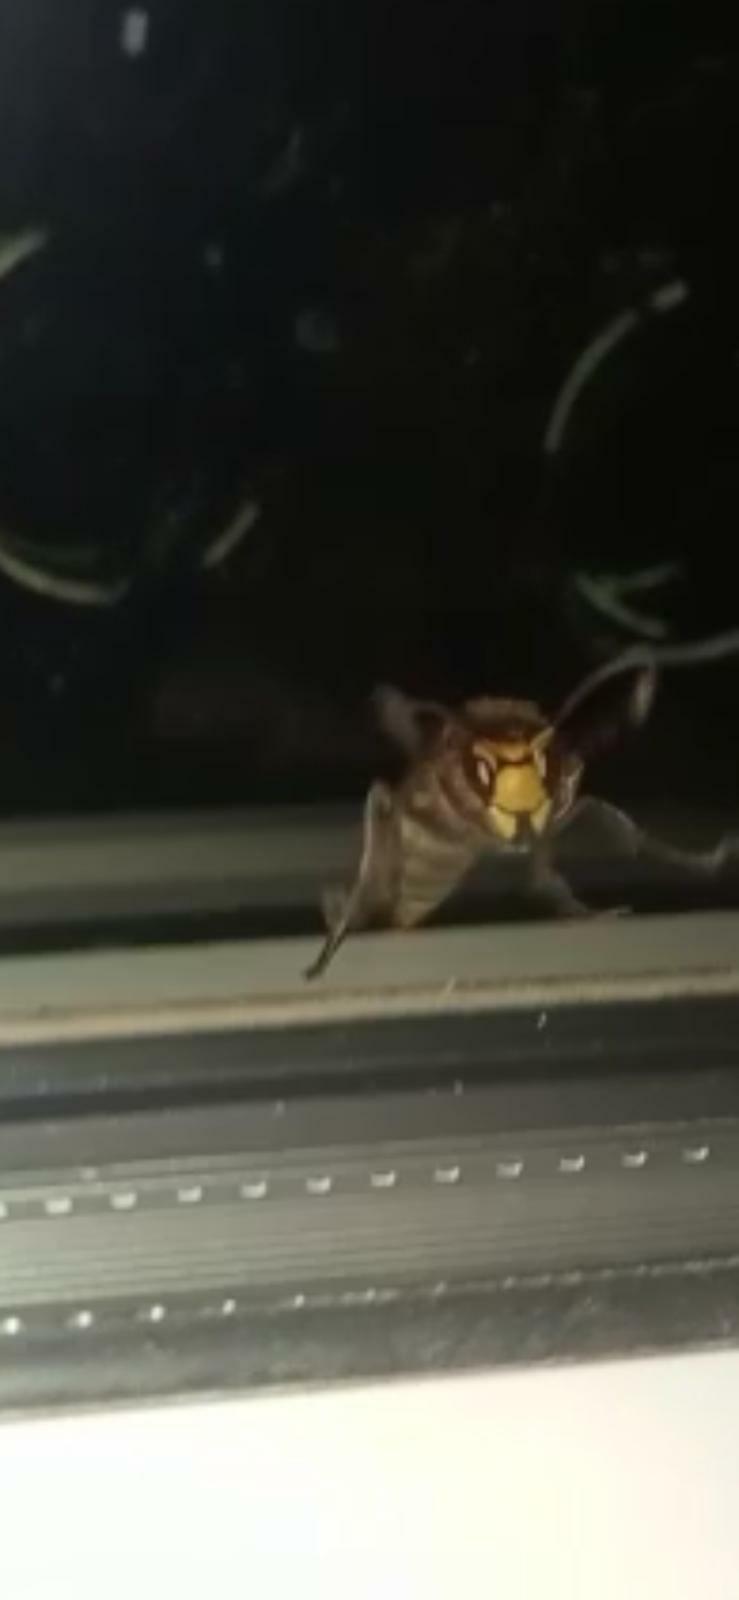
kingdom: Animalia
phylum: Arthropoda
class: Insecta
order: Hymenoptera
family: Vespidae
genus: Vespa
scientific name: Vespa crabro
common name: Hornet
